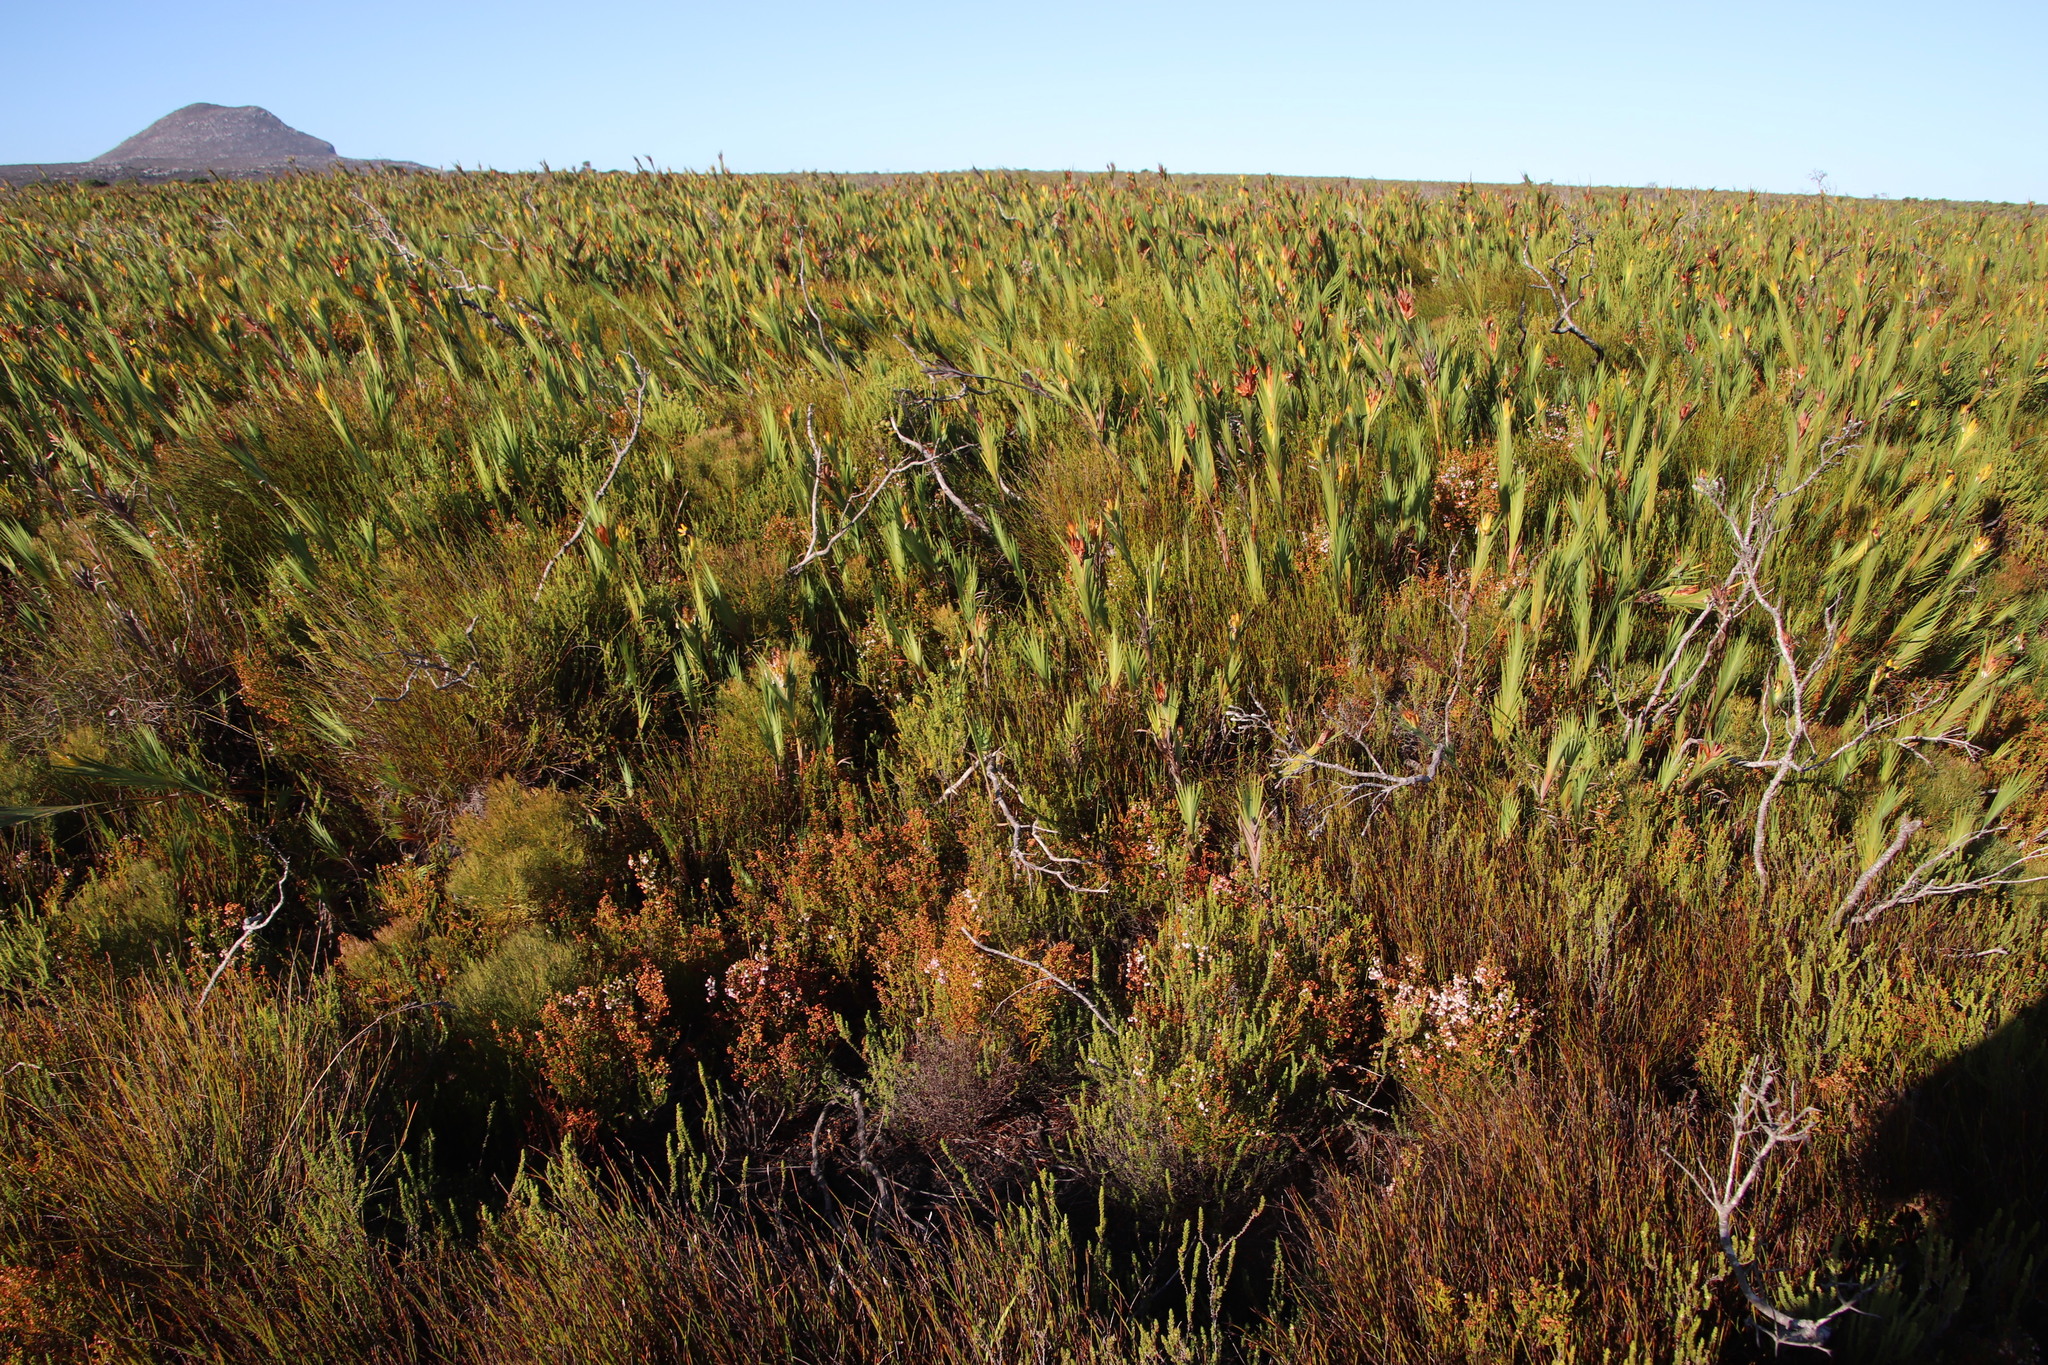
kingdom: Plantae
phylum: Tracheophyta
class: Magnoliopsida
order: Ericales
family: Ericaceae
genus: Erica
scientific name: Erica capensis
